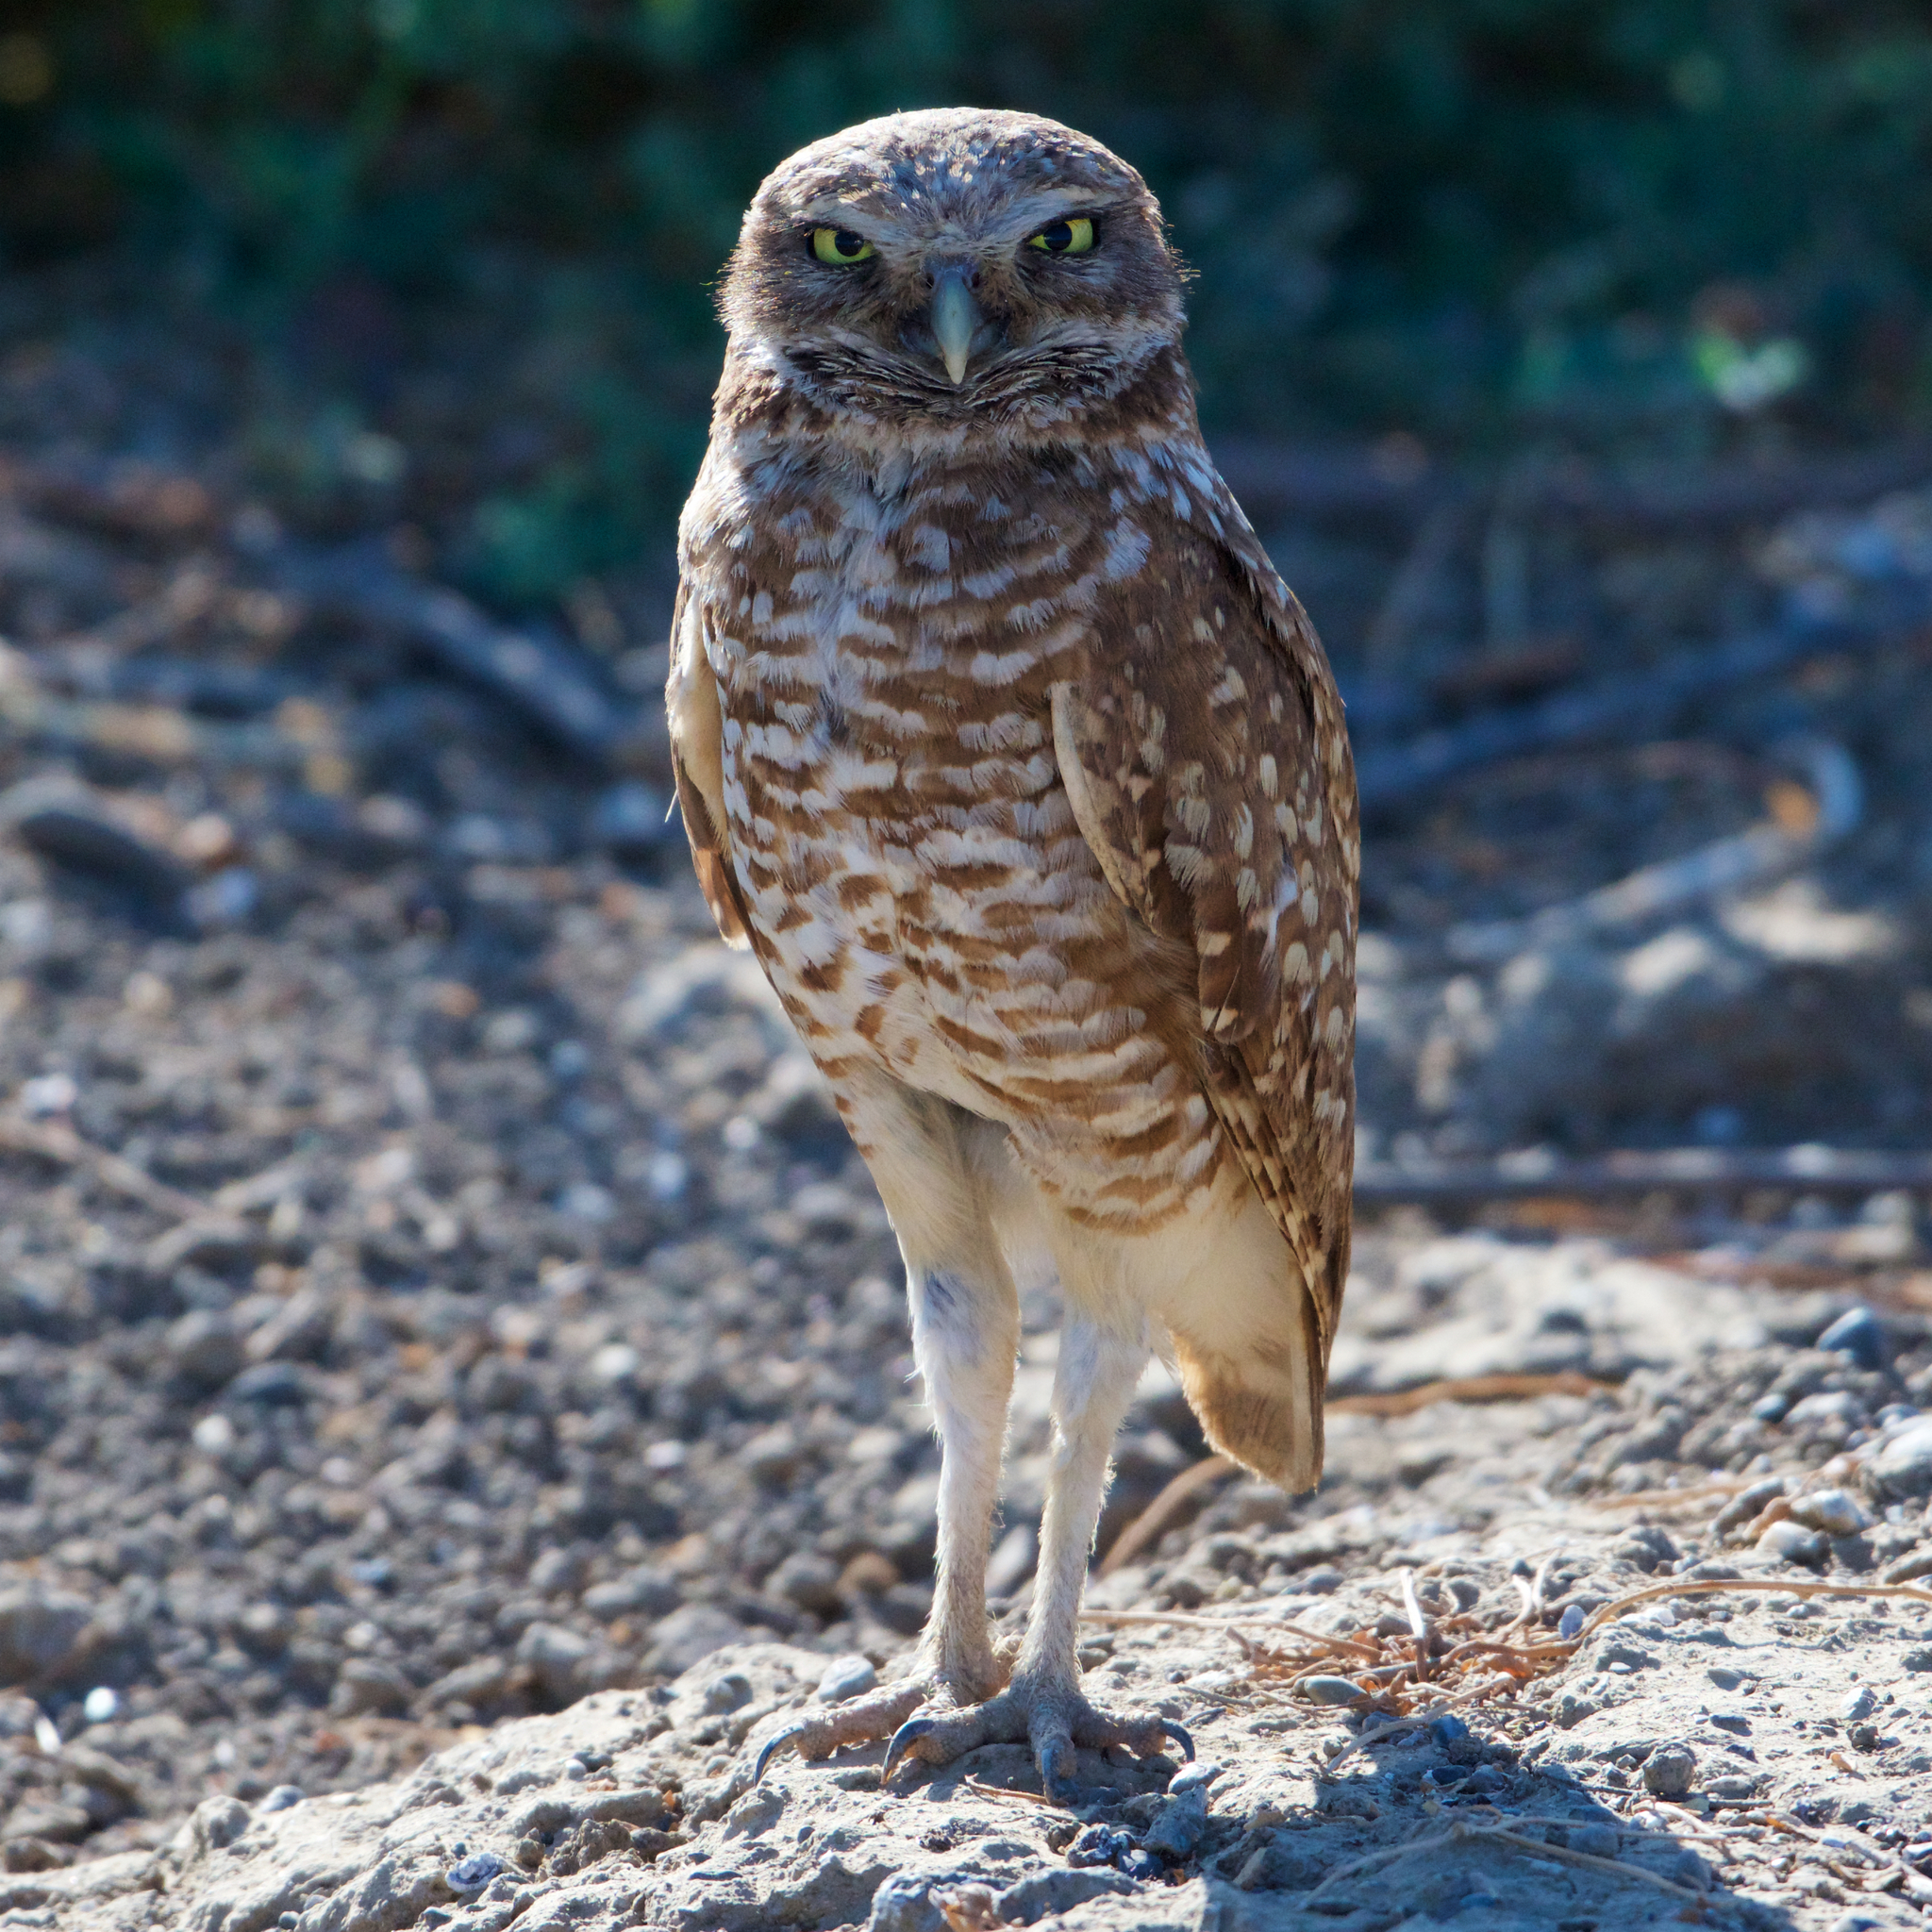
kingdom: Animalia
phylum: Chordata
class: Aves
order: Strigiformes
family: Strigidae
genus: Athene
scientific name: Athene cunicularia
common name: Burrowing owl
